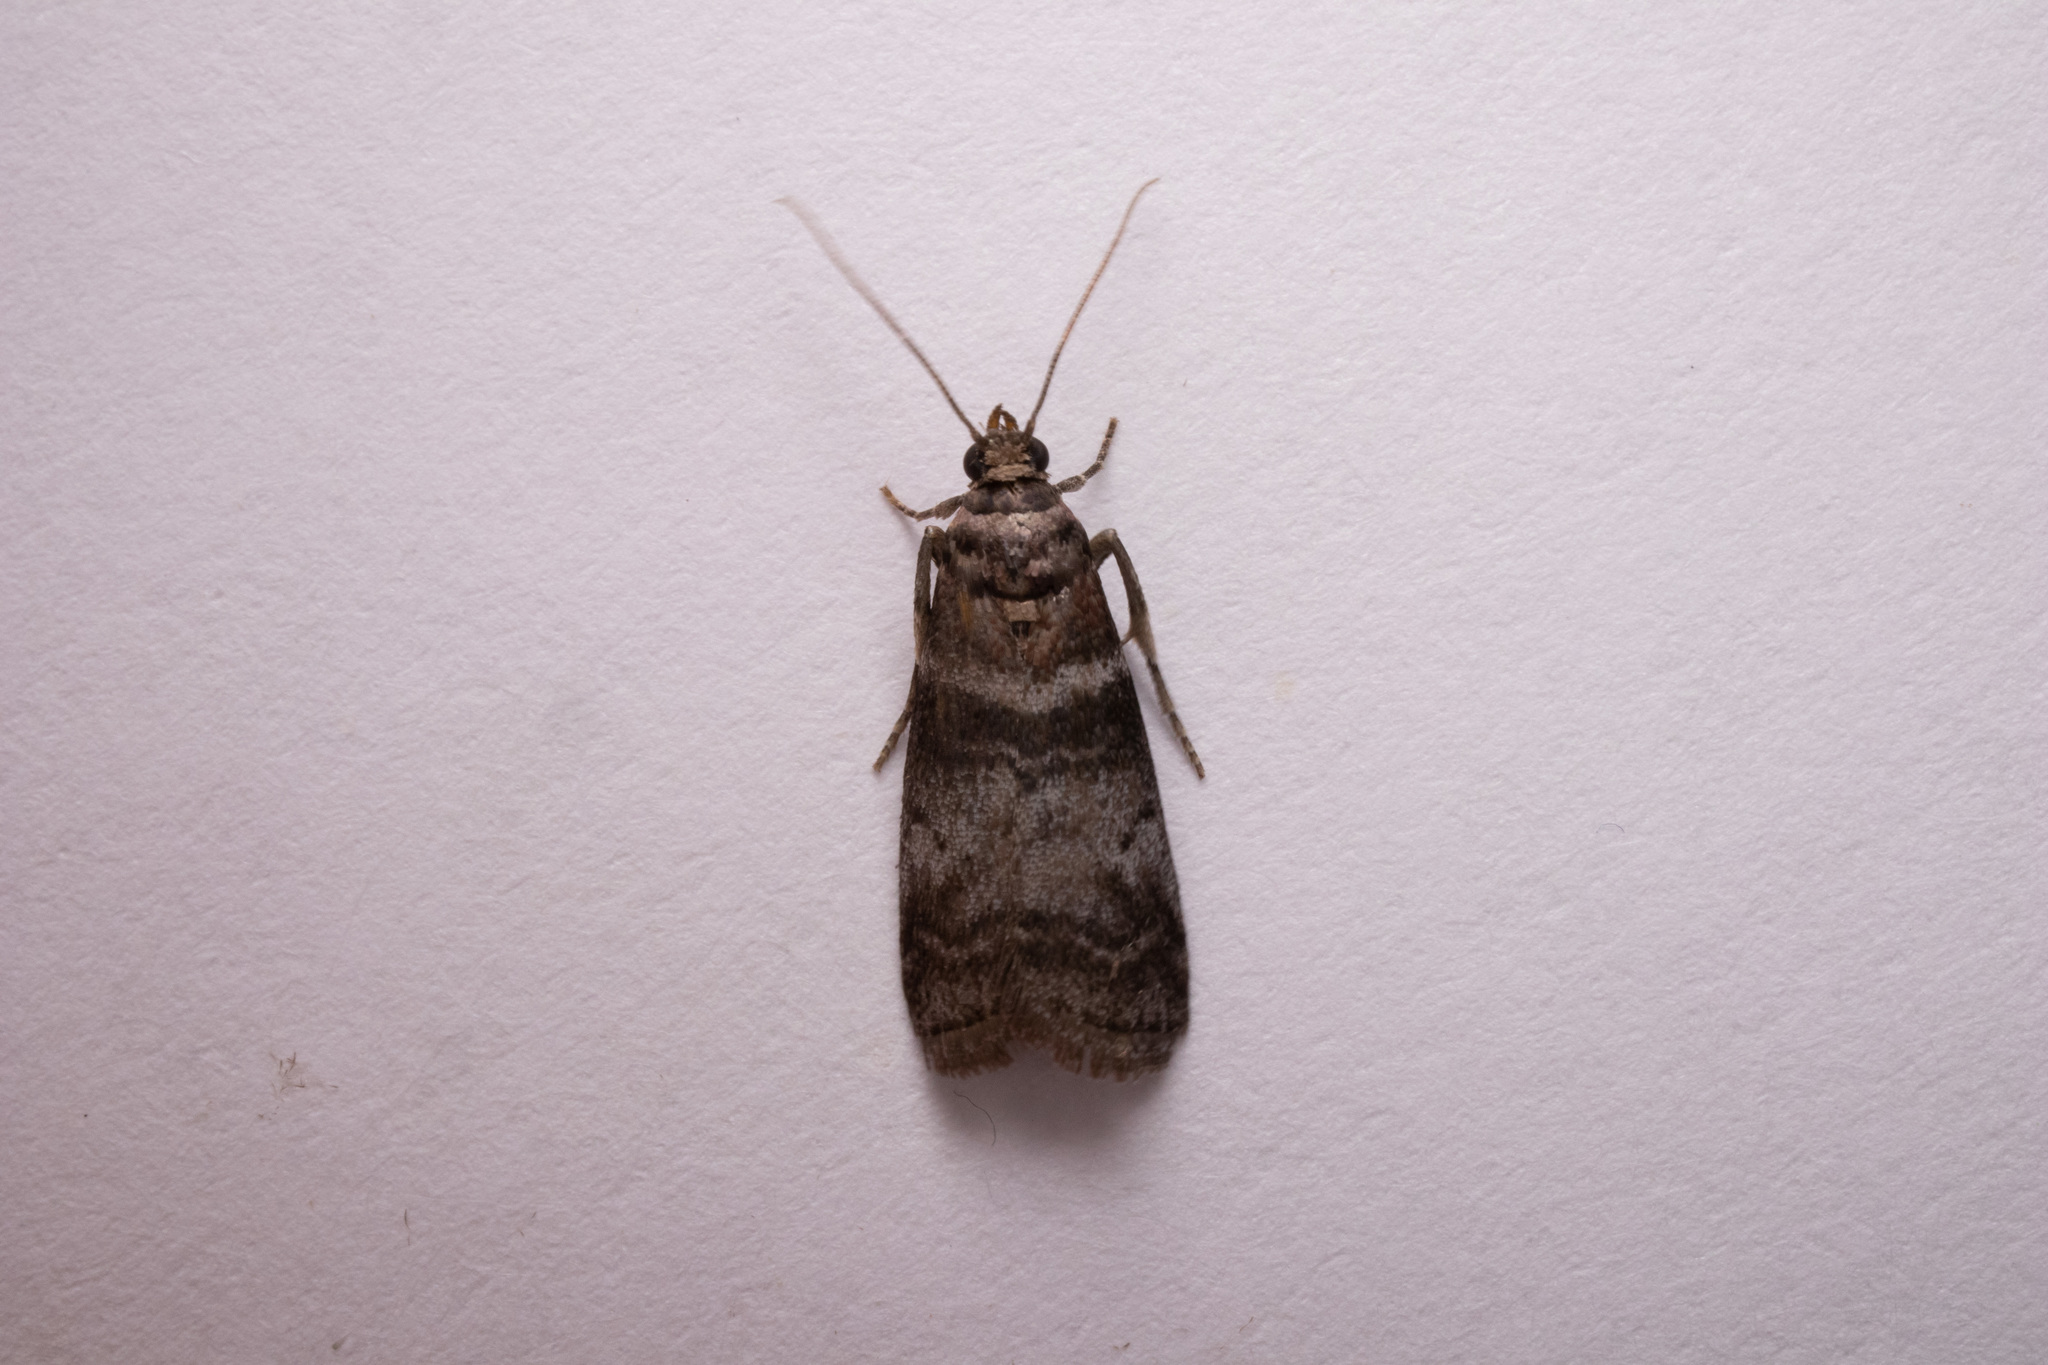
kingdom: Animalia
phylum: Arthropoda
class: Insecta
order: Lepidoptera
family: Pyralidae
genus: Sciota
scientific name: Sciota uvinella
